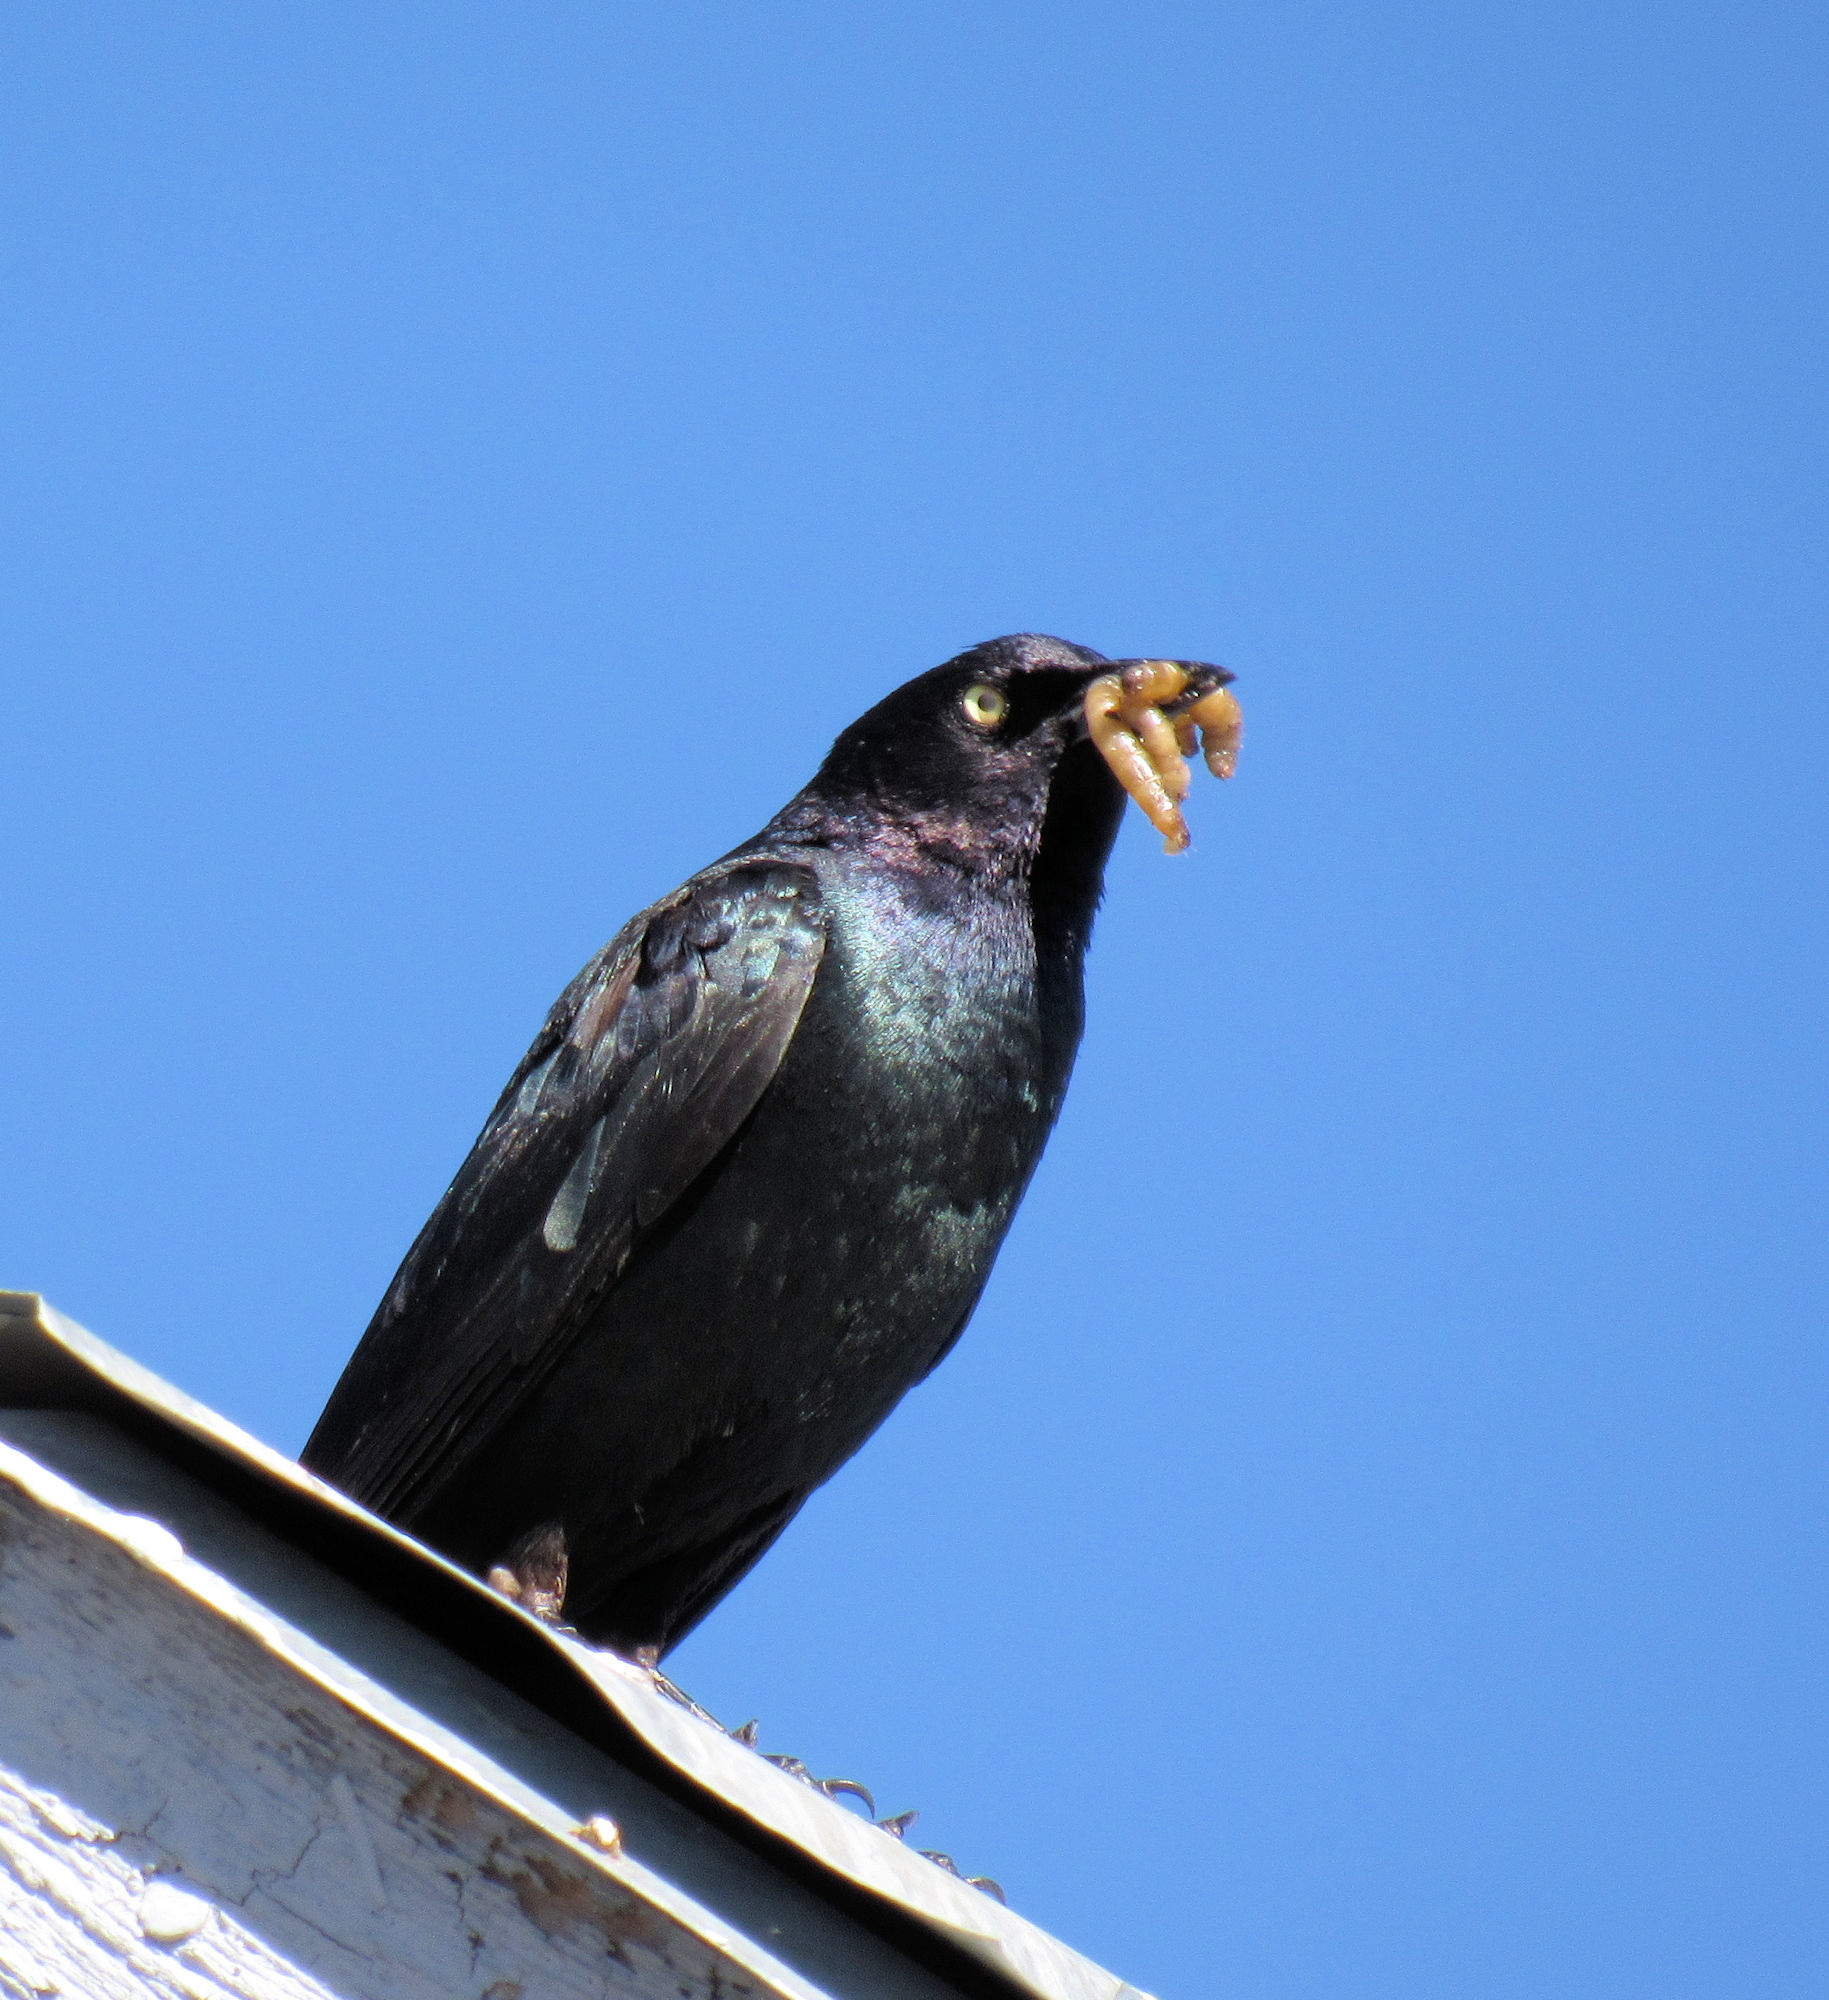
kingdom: Animalia
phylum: Chordata
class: Aves
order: Passeriformes
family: Icteridae
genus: Euphagus
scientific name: Euphagus cyanocephalus
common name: Brewer's blackbird
